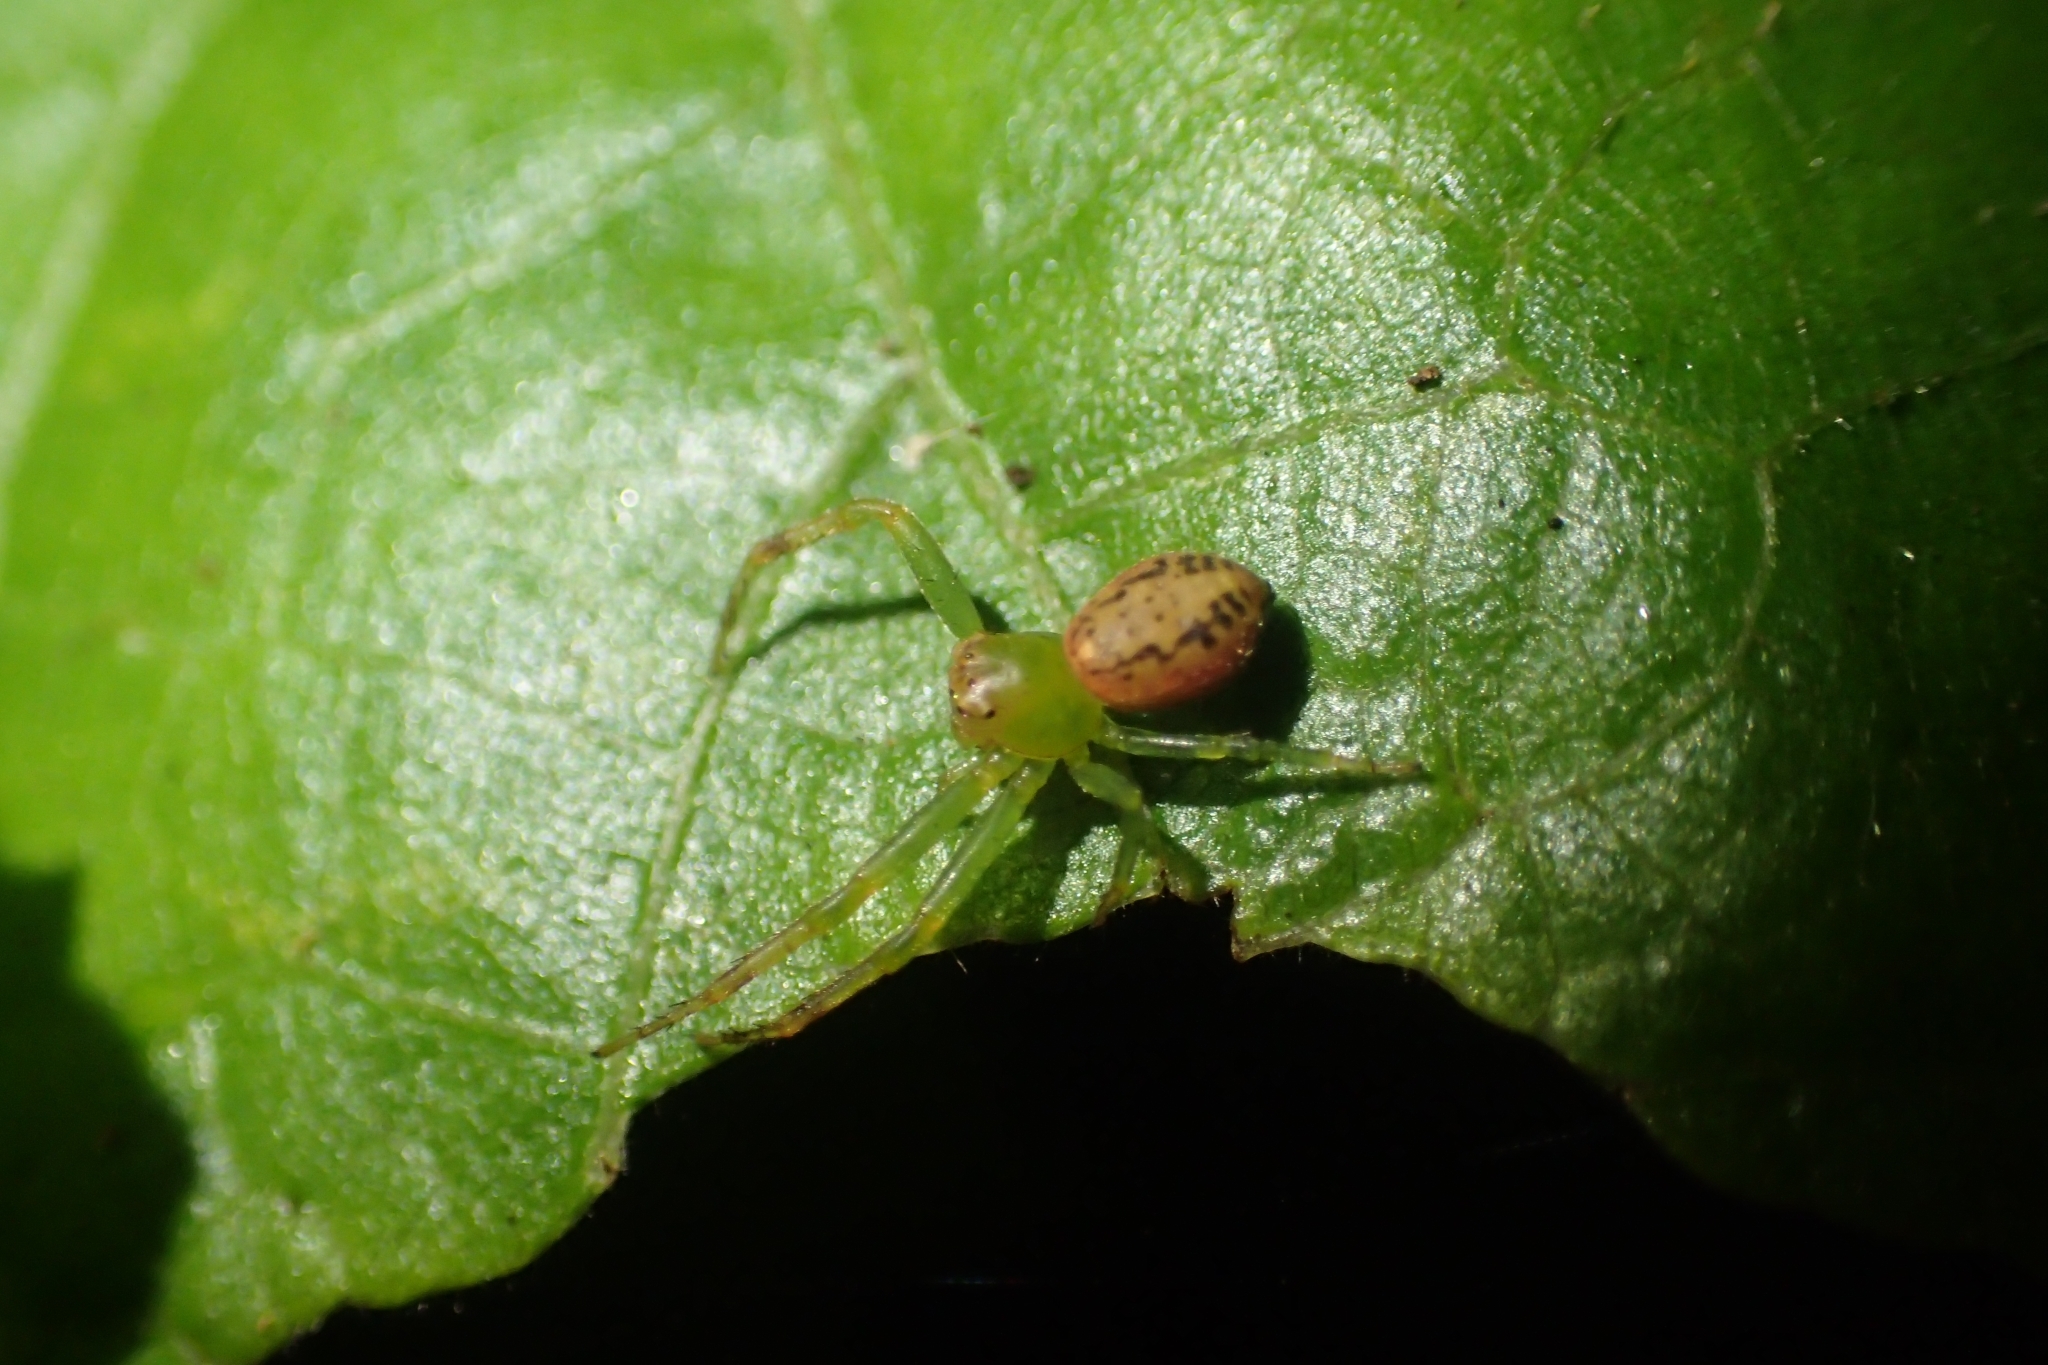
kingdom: Animalia
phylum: Arthropoda
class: Arachnida
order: Araneae
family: Thomisidae
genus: Diaea
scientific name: Diaea ambara
